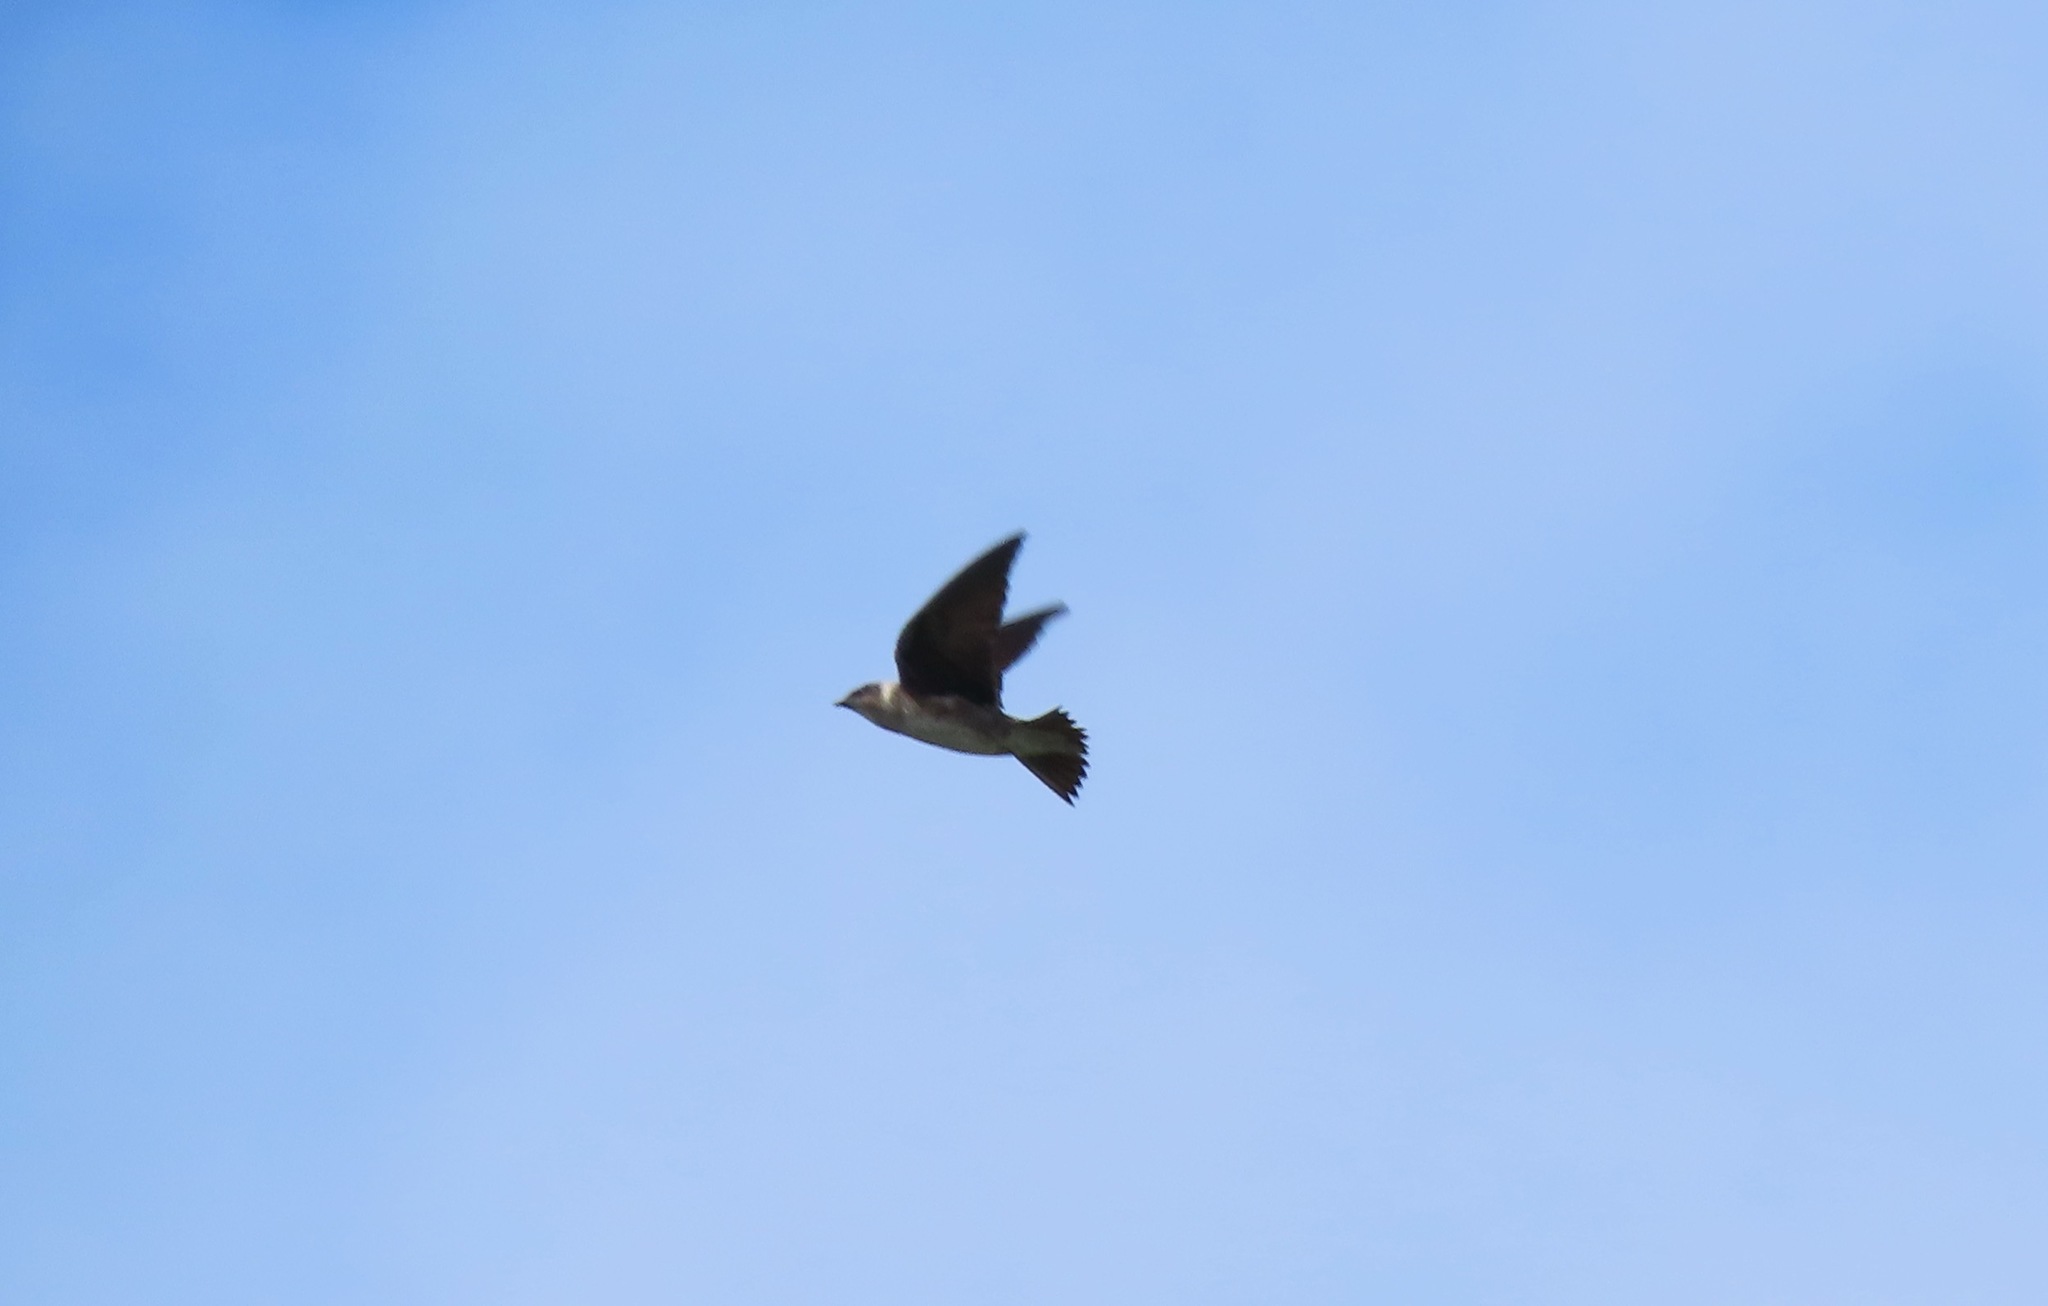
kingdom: Animalia
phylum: Chordata
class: Aves
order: Passeriformes
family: Hirundinidae
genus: Stelgidopteryx
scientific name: Stelgidopteryx serripennis
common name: Northern rough-winged swallow
